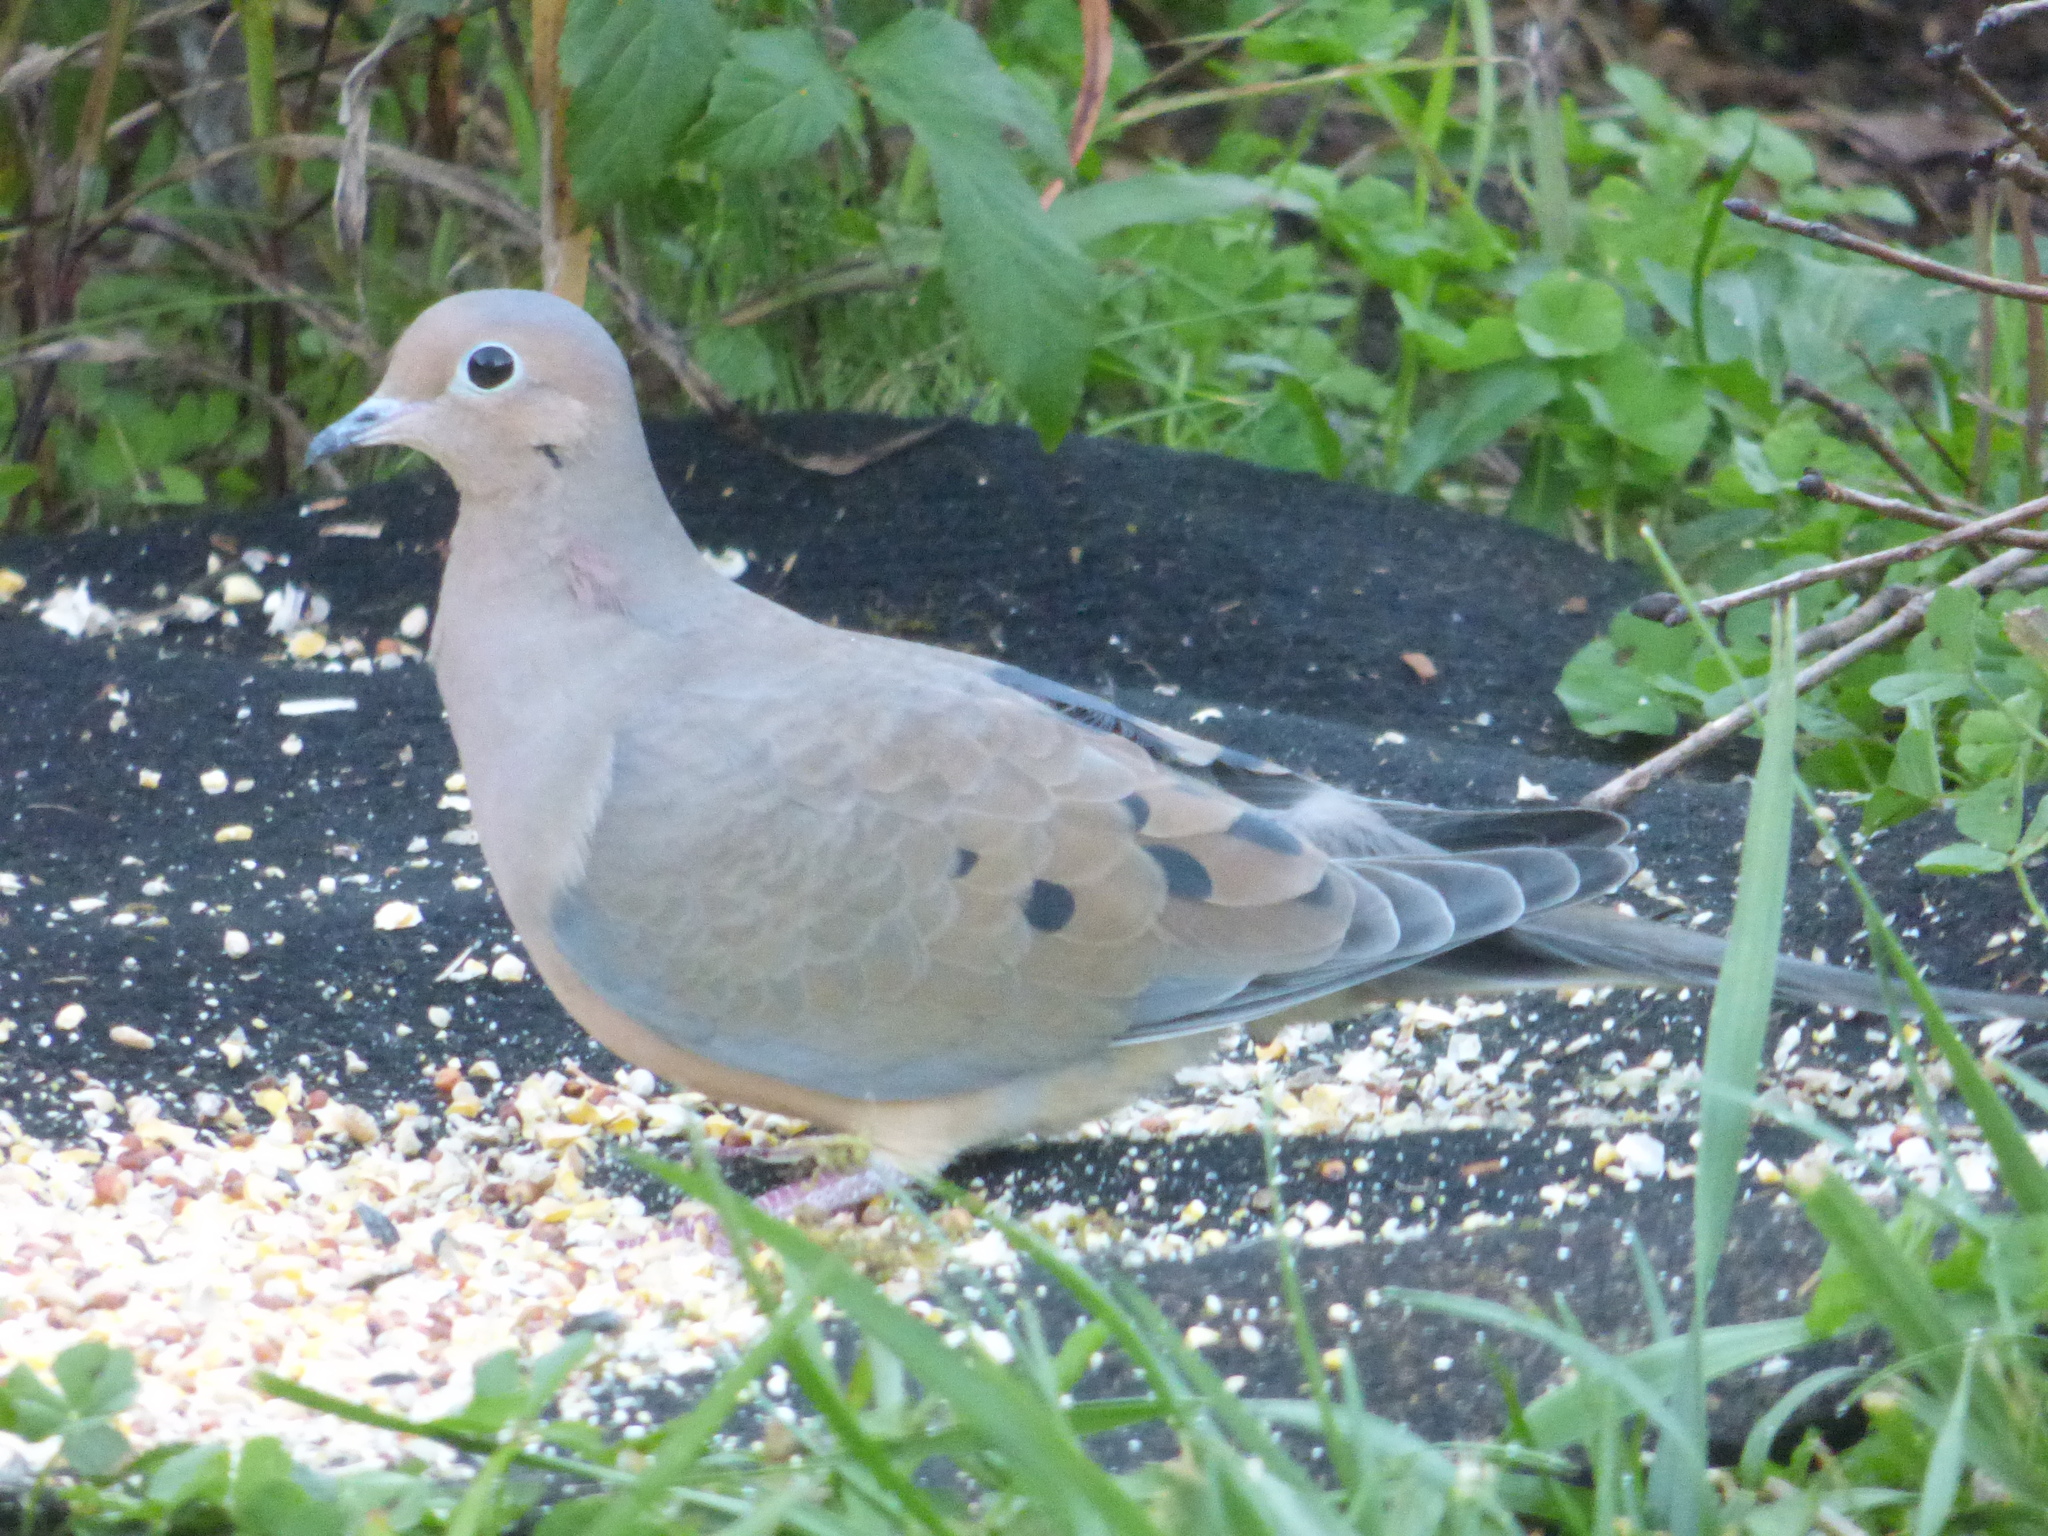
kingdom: Animalia
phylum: Chordata
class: Aves
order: Columbiformes
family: Columbidae
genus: Zenaida
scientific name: Zenaida macroura
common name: Mourning dove
